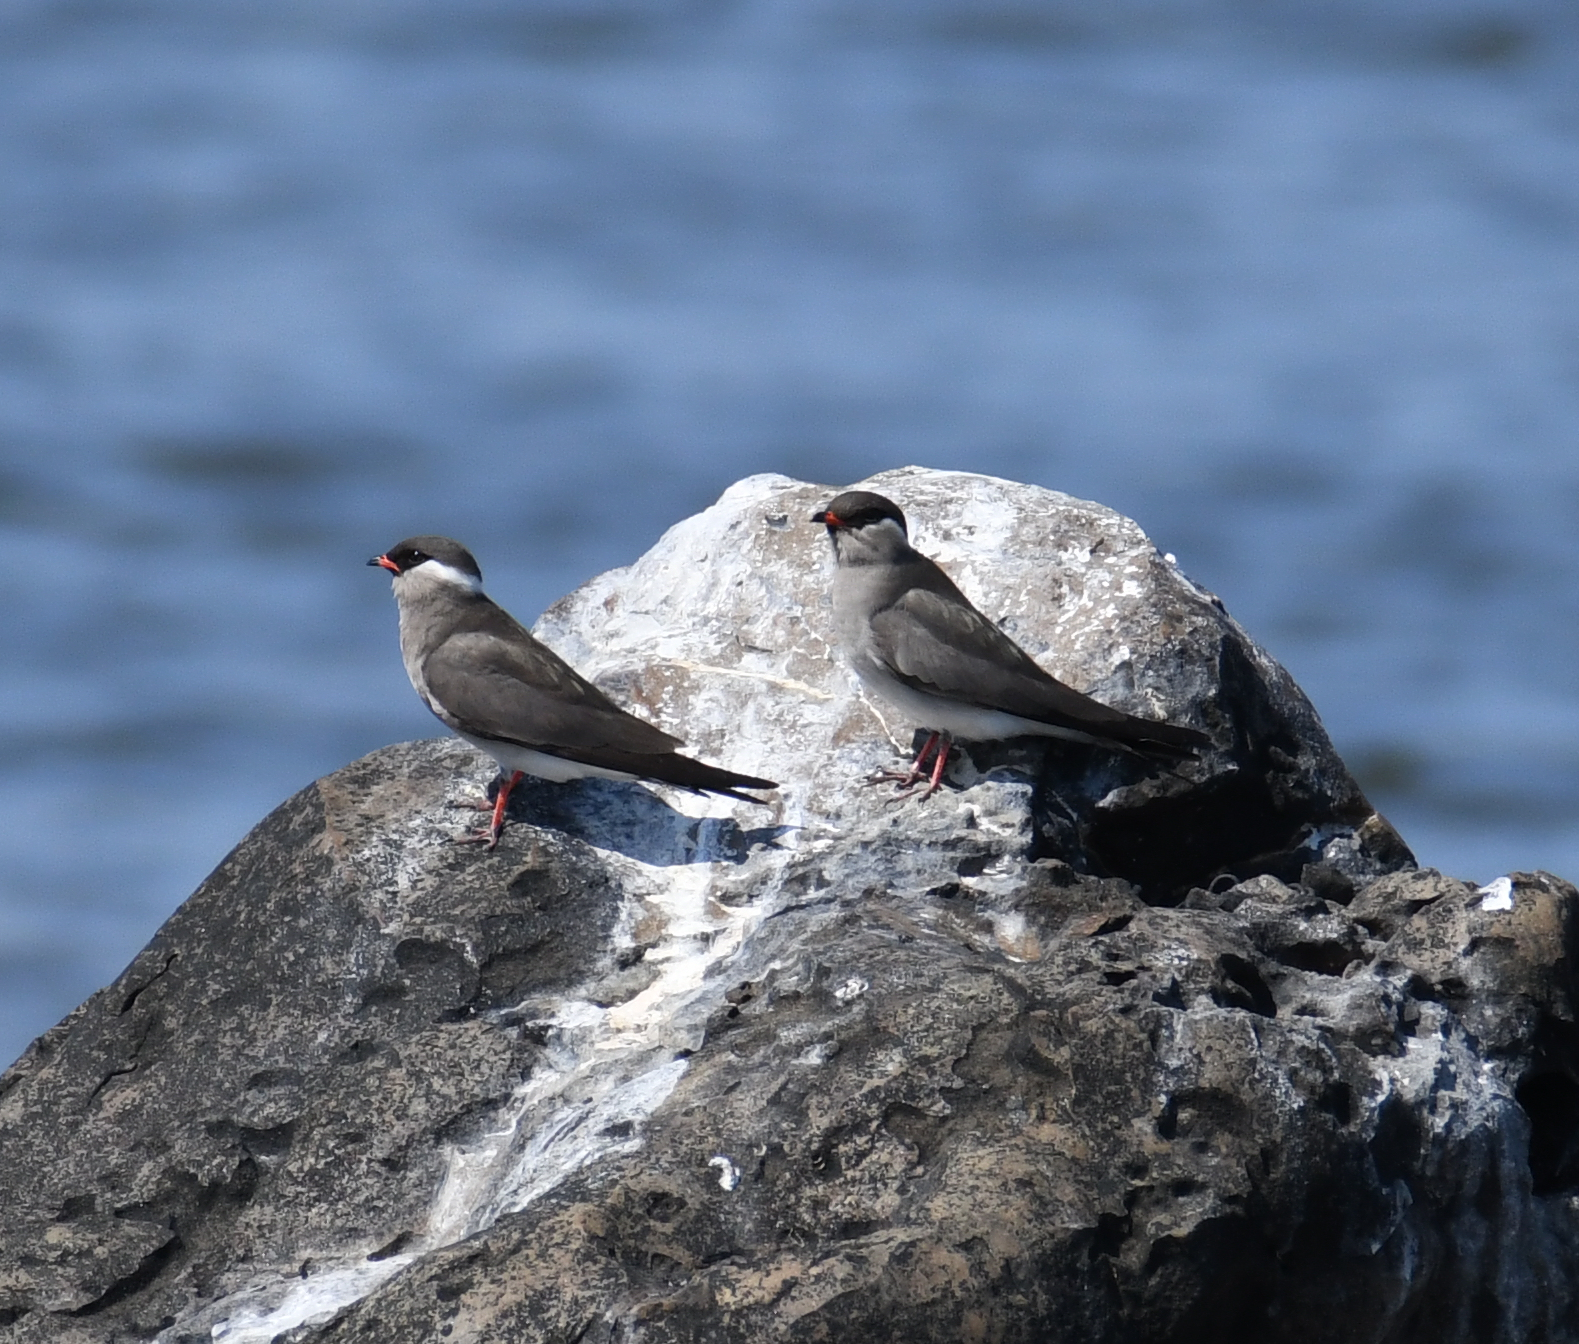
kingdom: Animalia
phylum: Chordata
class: Aves
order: Charadriiformes
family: Glareolidae
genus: Glareola
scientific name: Glareola nuchalis
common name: Rock pratincole
